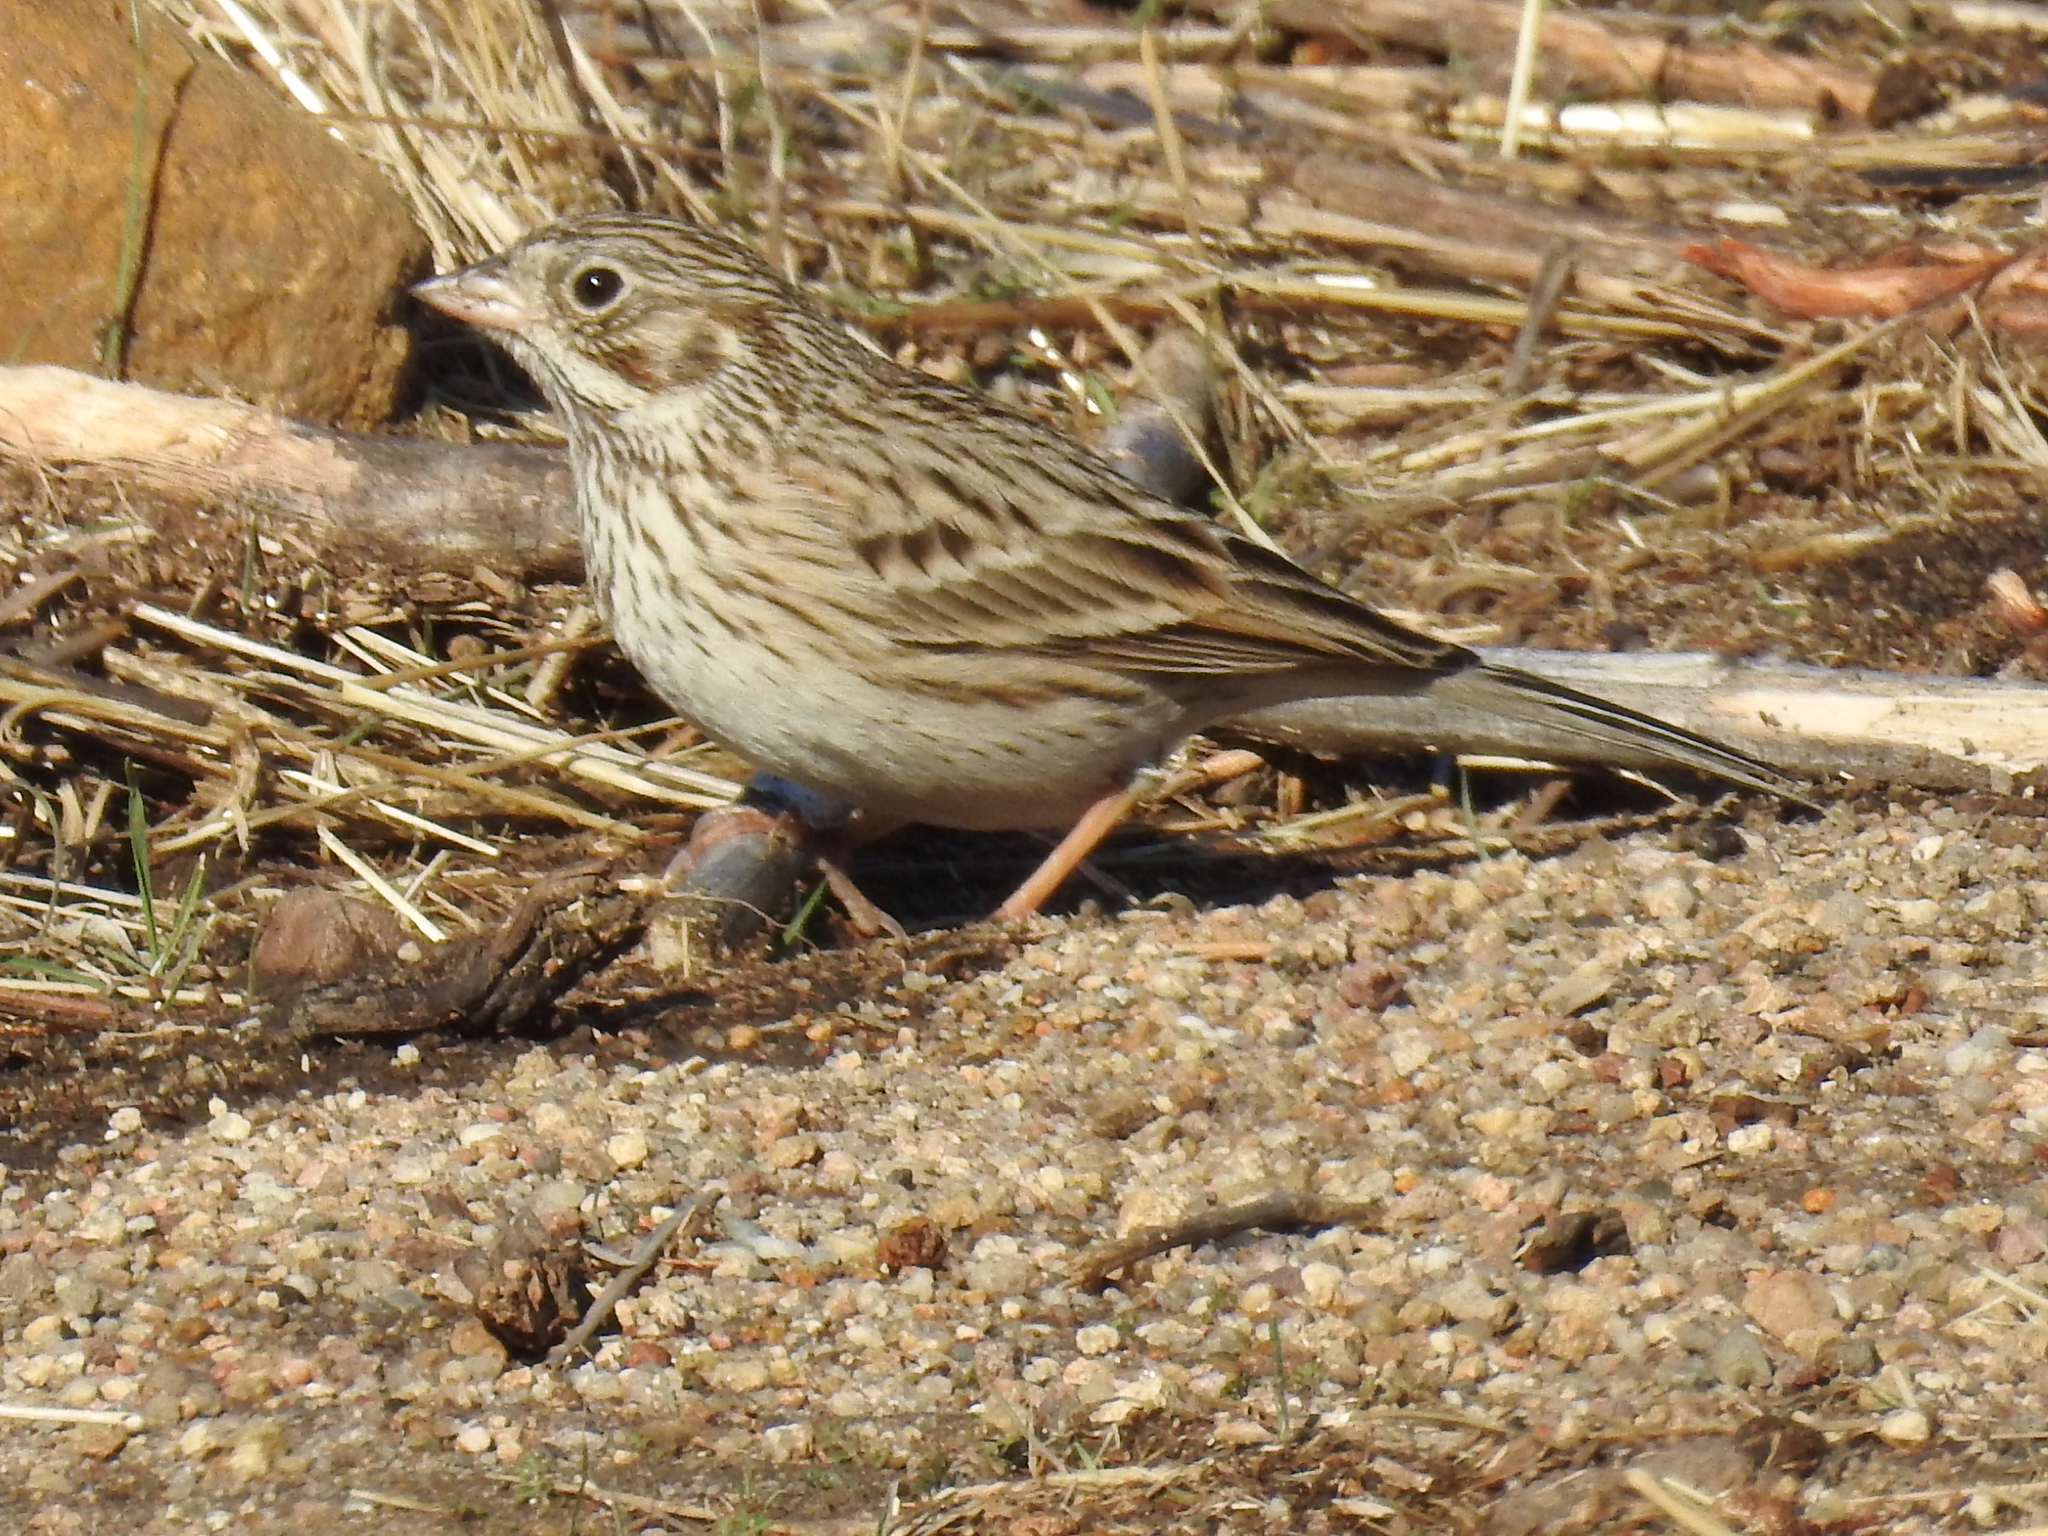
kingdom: Animalia
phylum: Chordata
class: Aves
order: Passeriformes
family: Passerellidae
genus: Pooecetes
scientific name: Pooecetes gramineus
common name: Vesper sparrow
